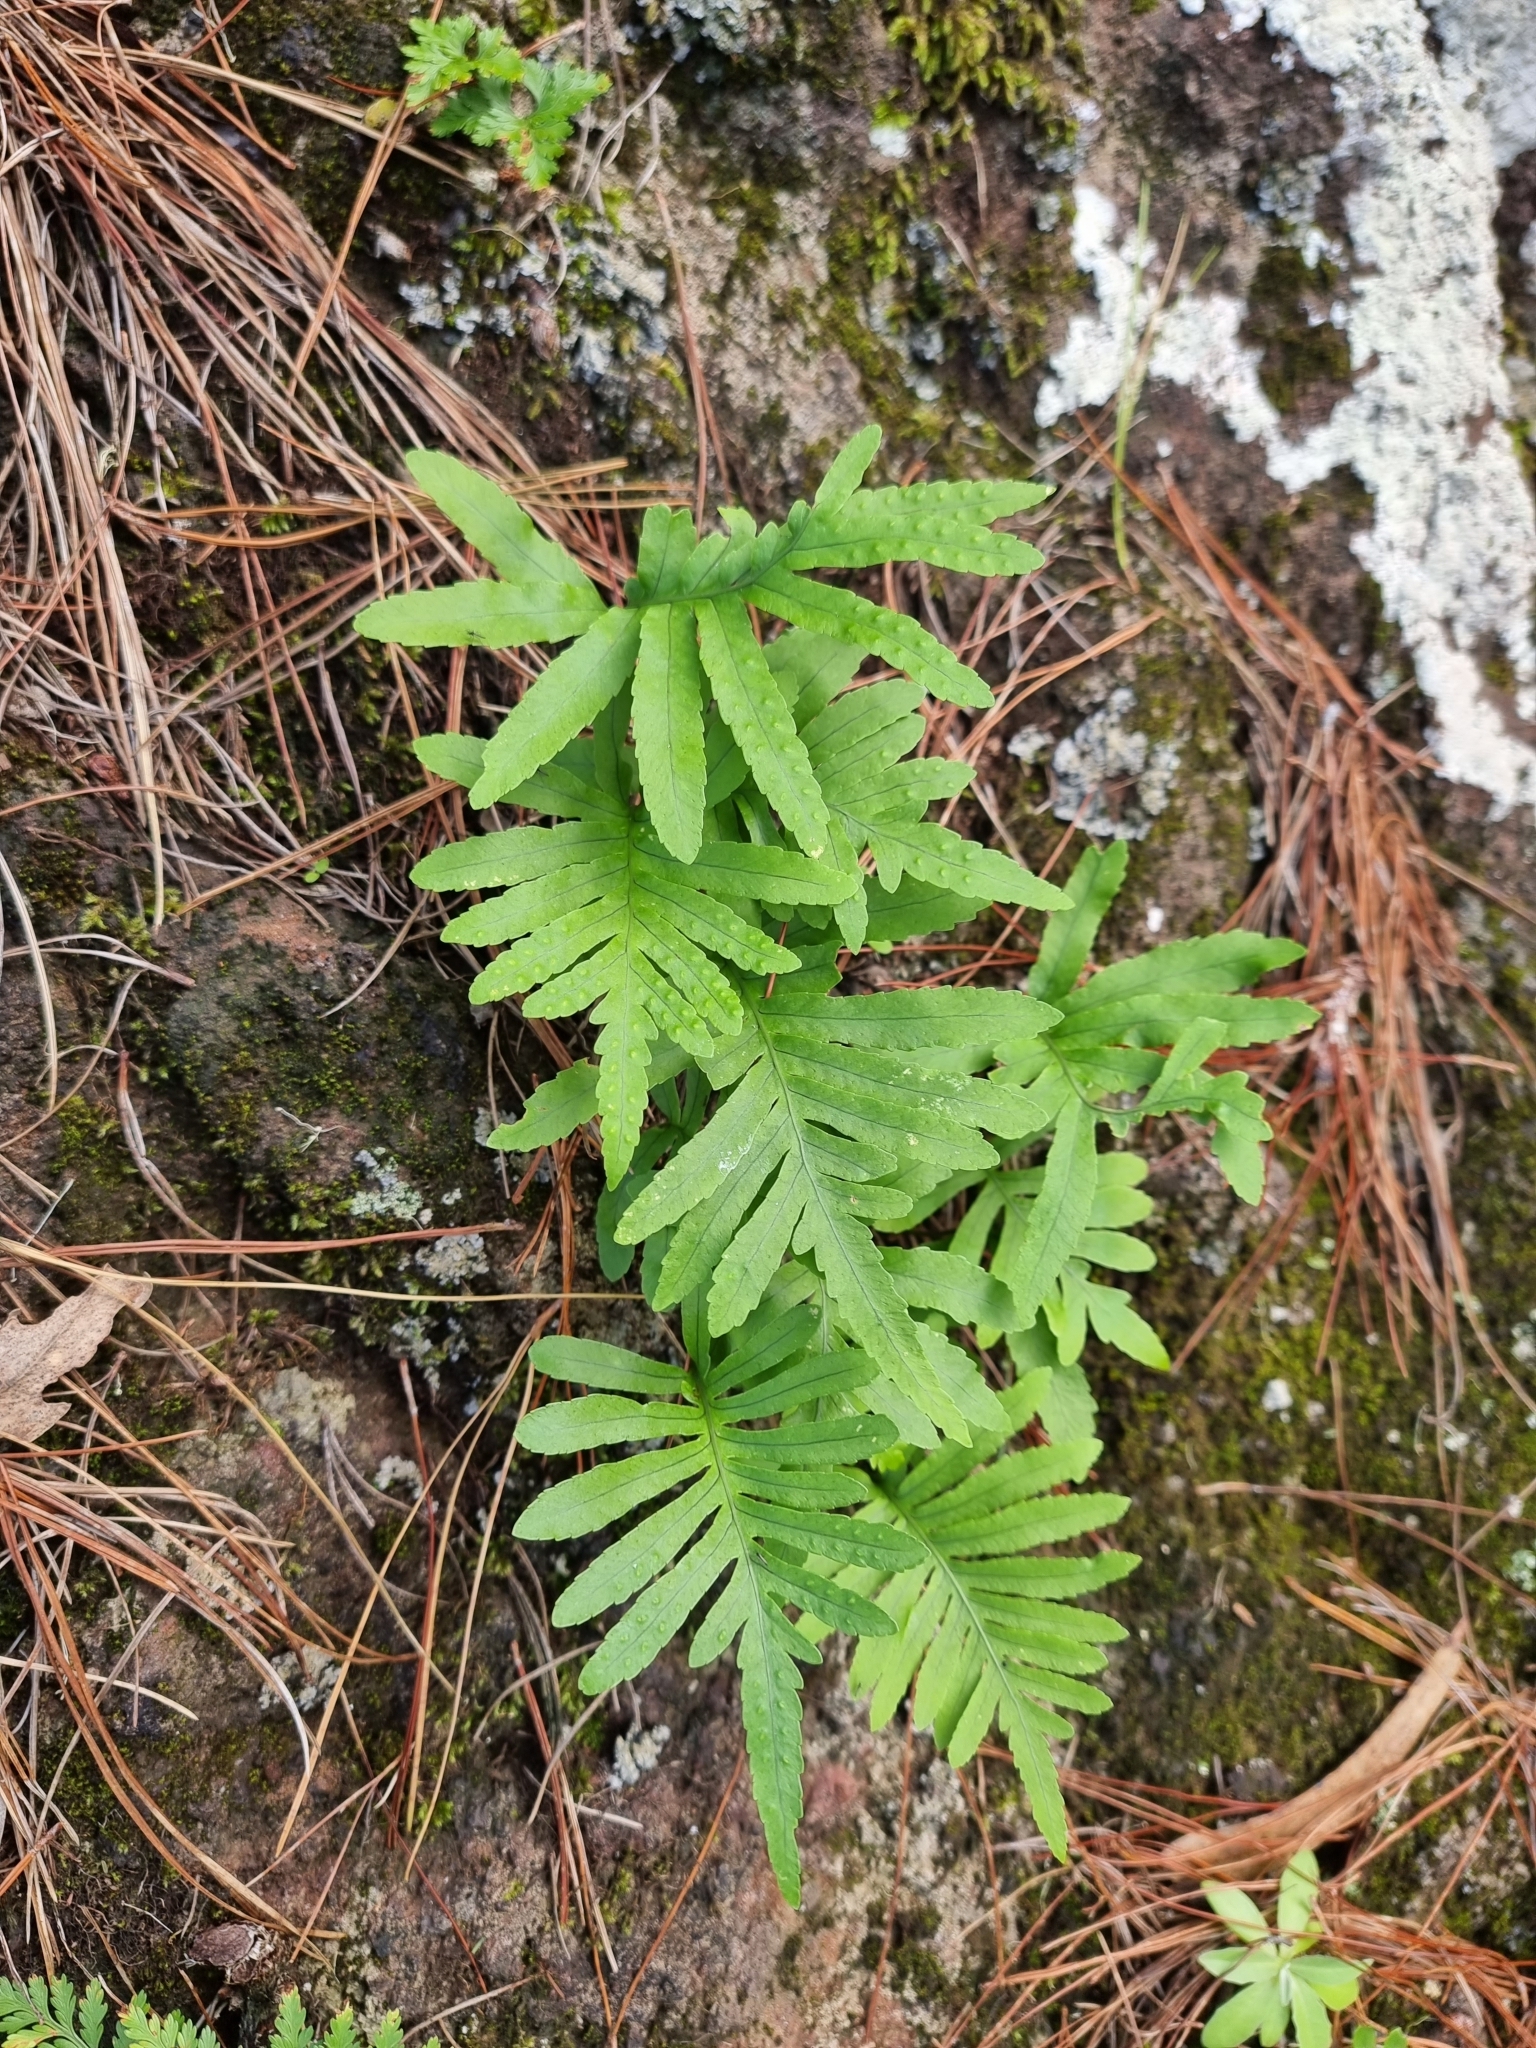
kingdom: Plantae
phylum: Tracheophyta
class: Polypodiopsida
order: Polypodiales
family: Polypodiaceae
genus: Polypodium
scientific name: Polypodium macaronesicum
